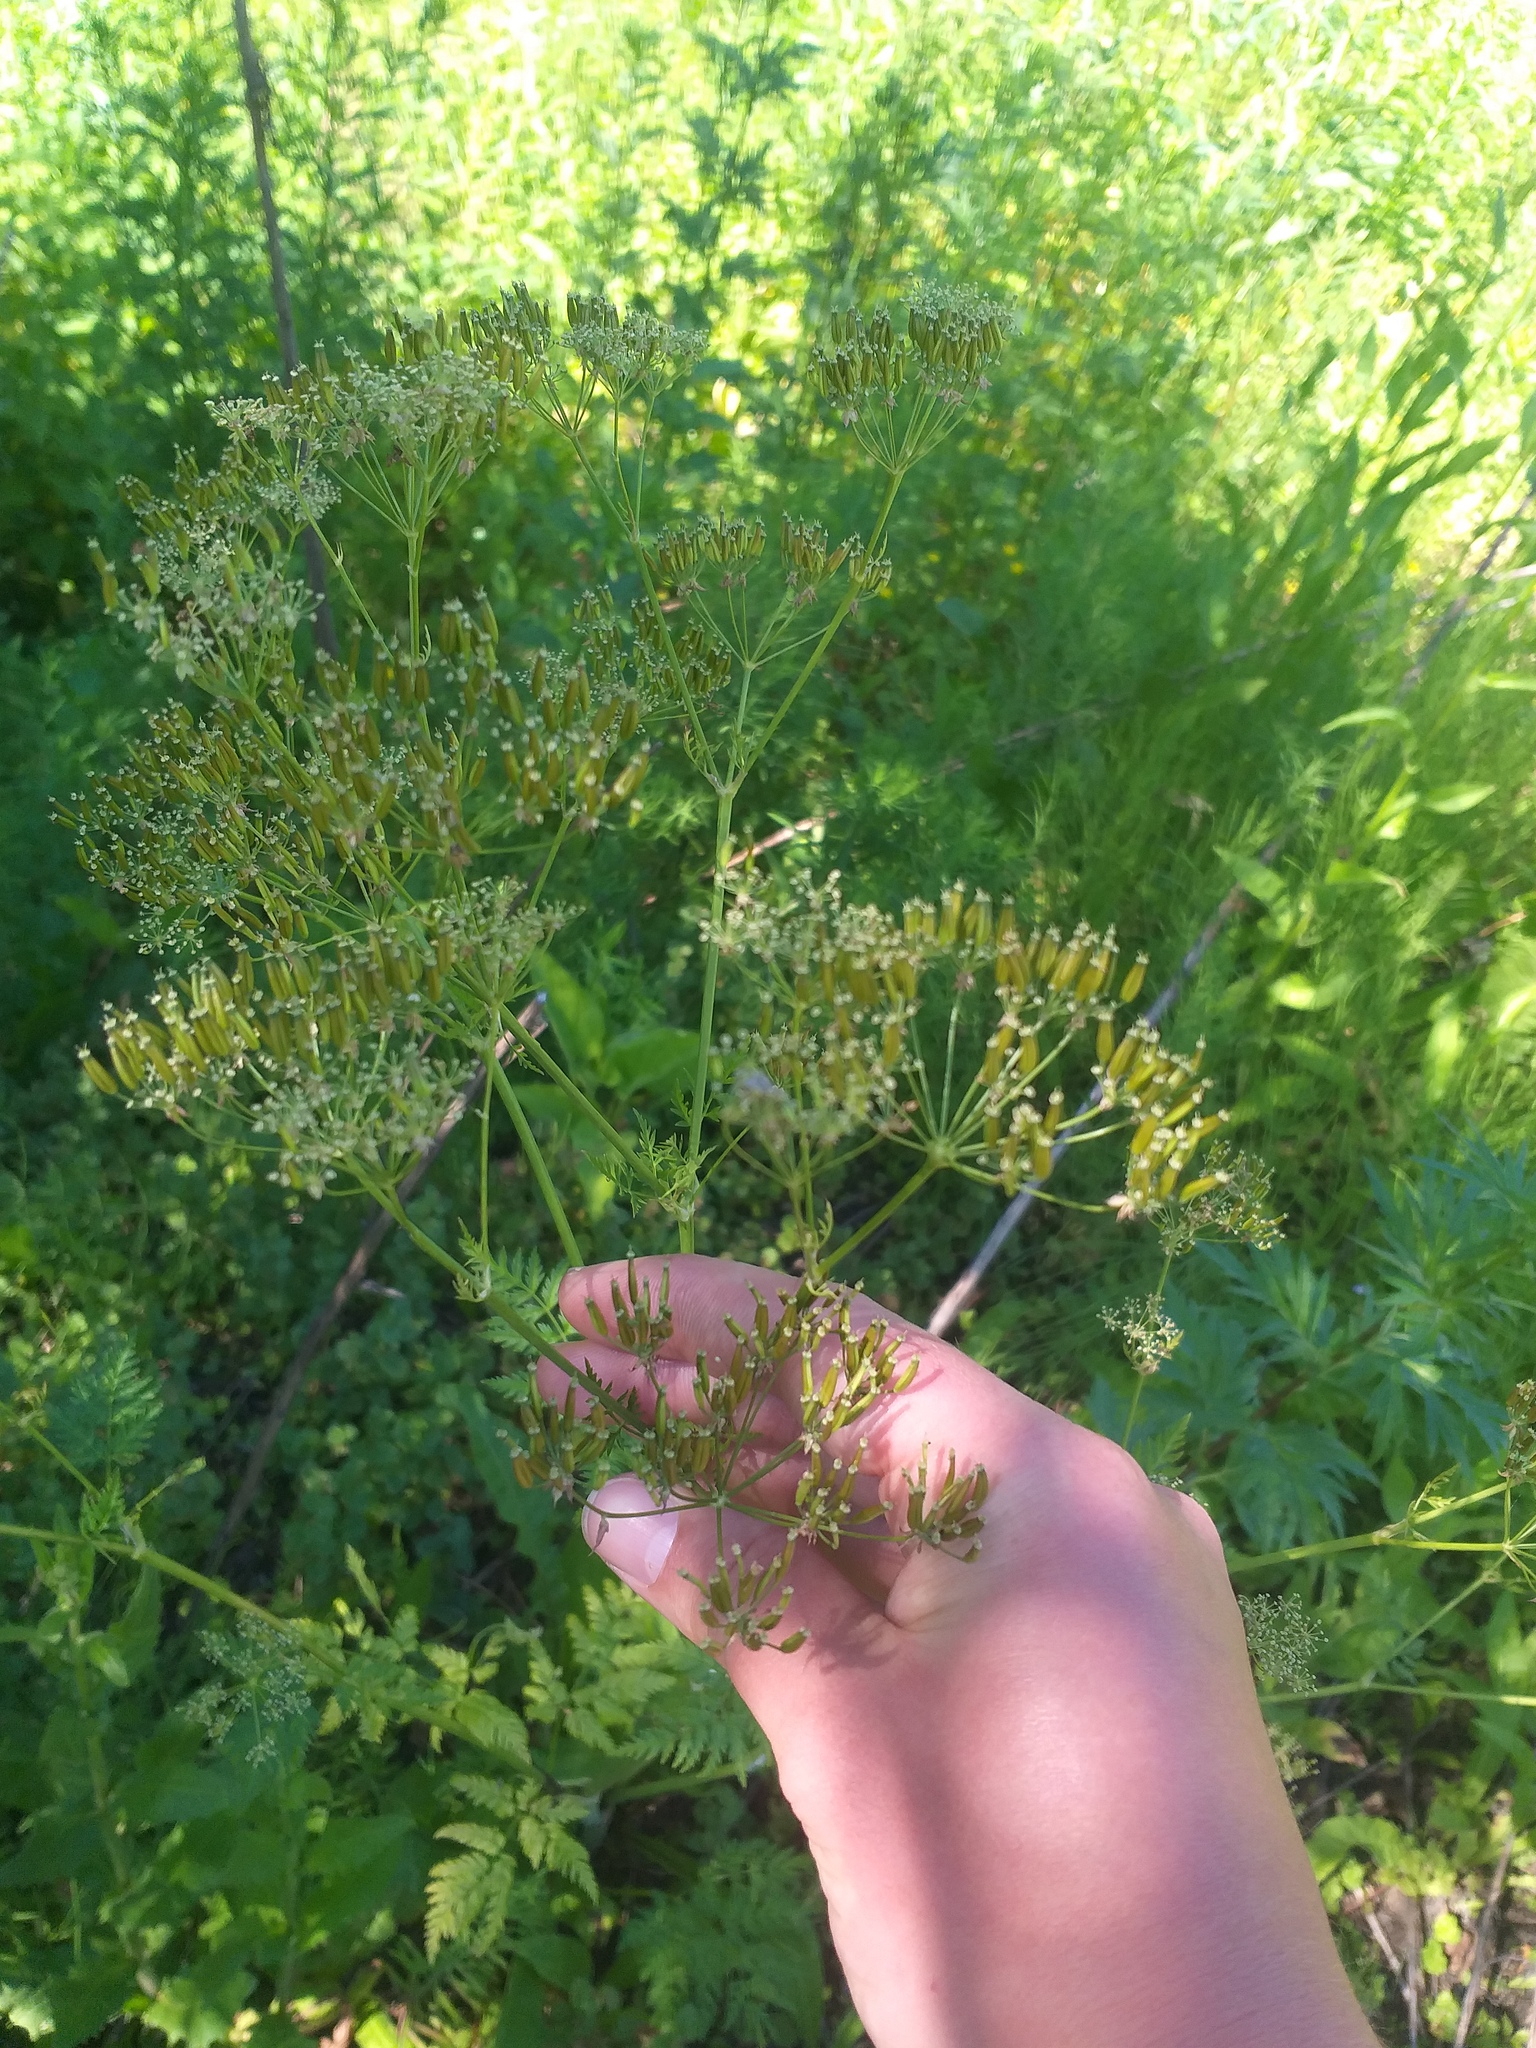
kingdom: Plantae
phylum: Tracheophyta
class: Magnoliopsida
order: Apiales
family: Apiaceae
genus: Anthriscus
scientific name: Anthriscus sylvestris
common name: Cow parsley
